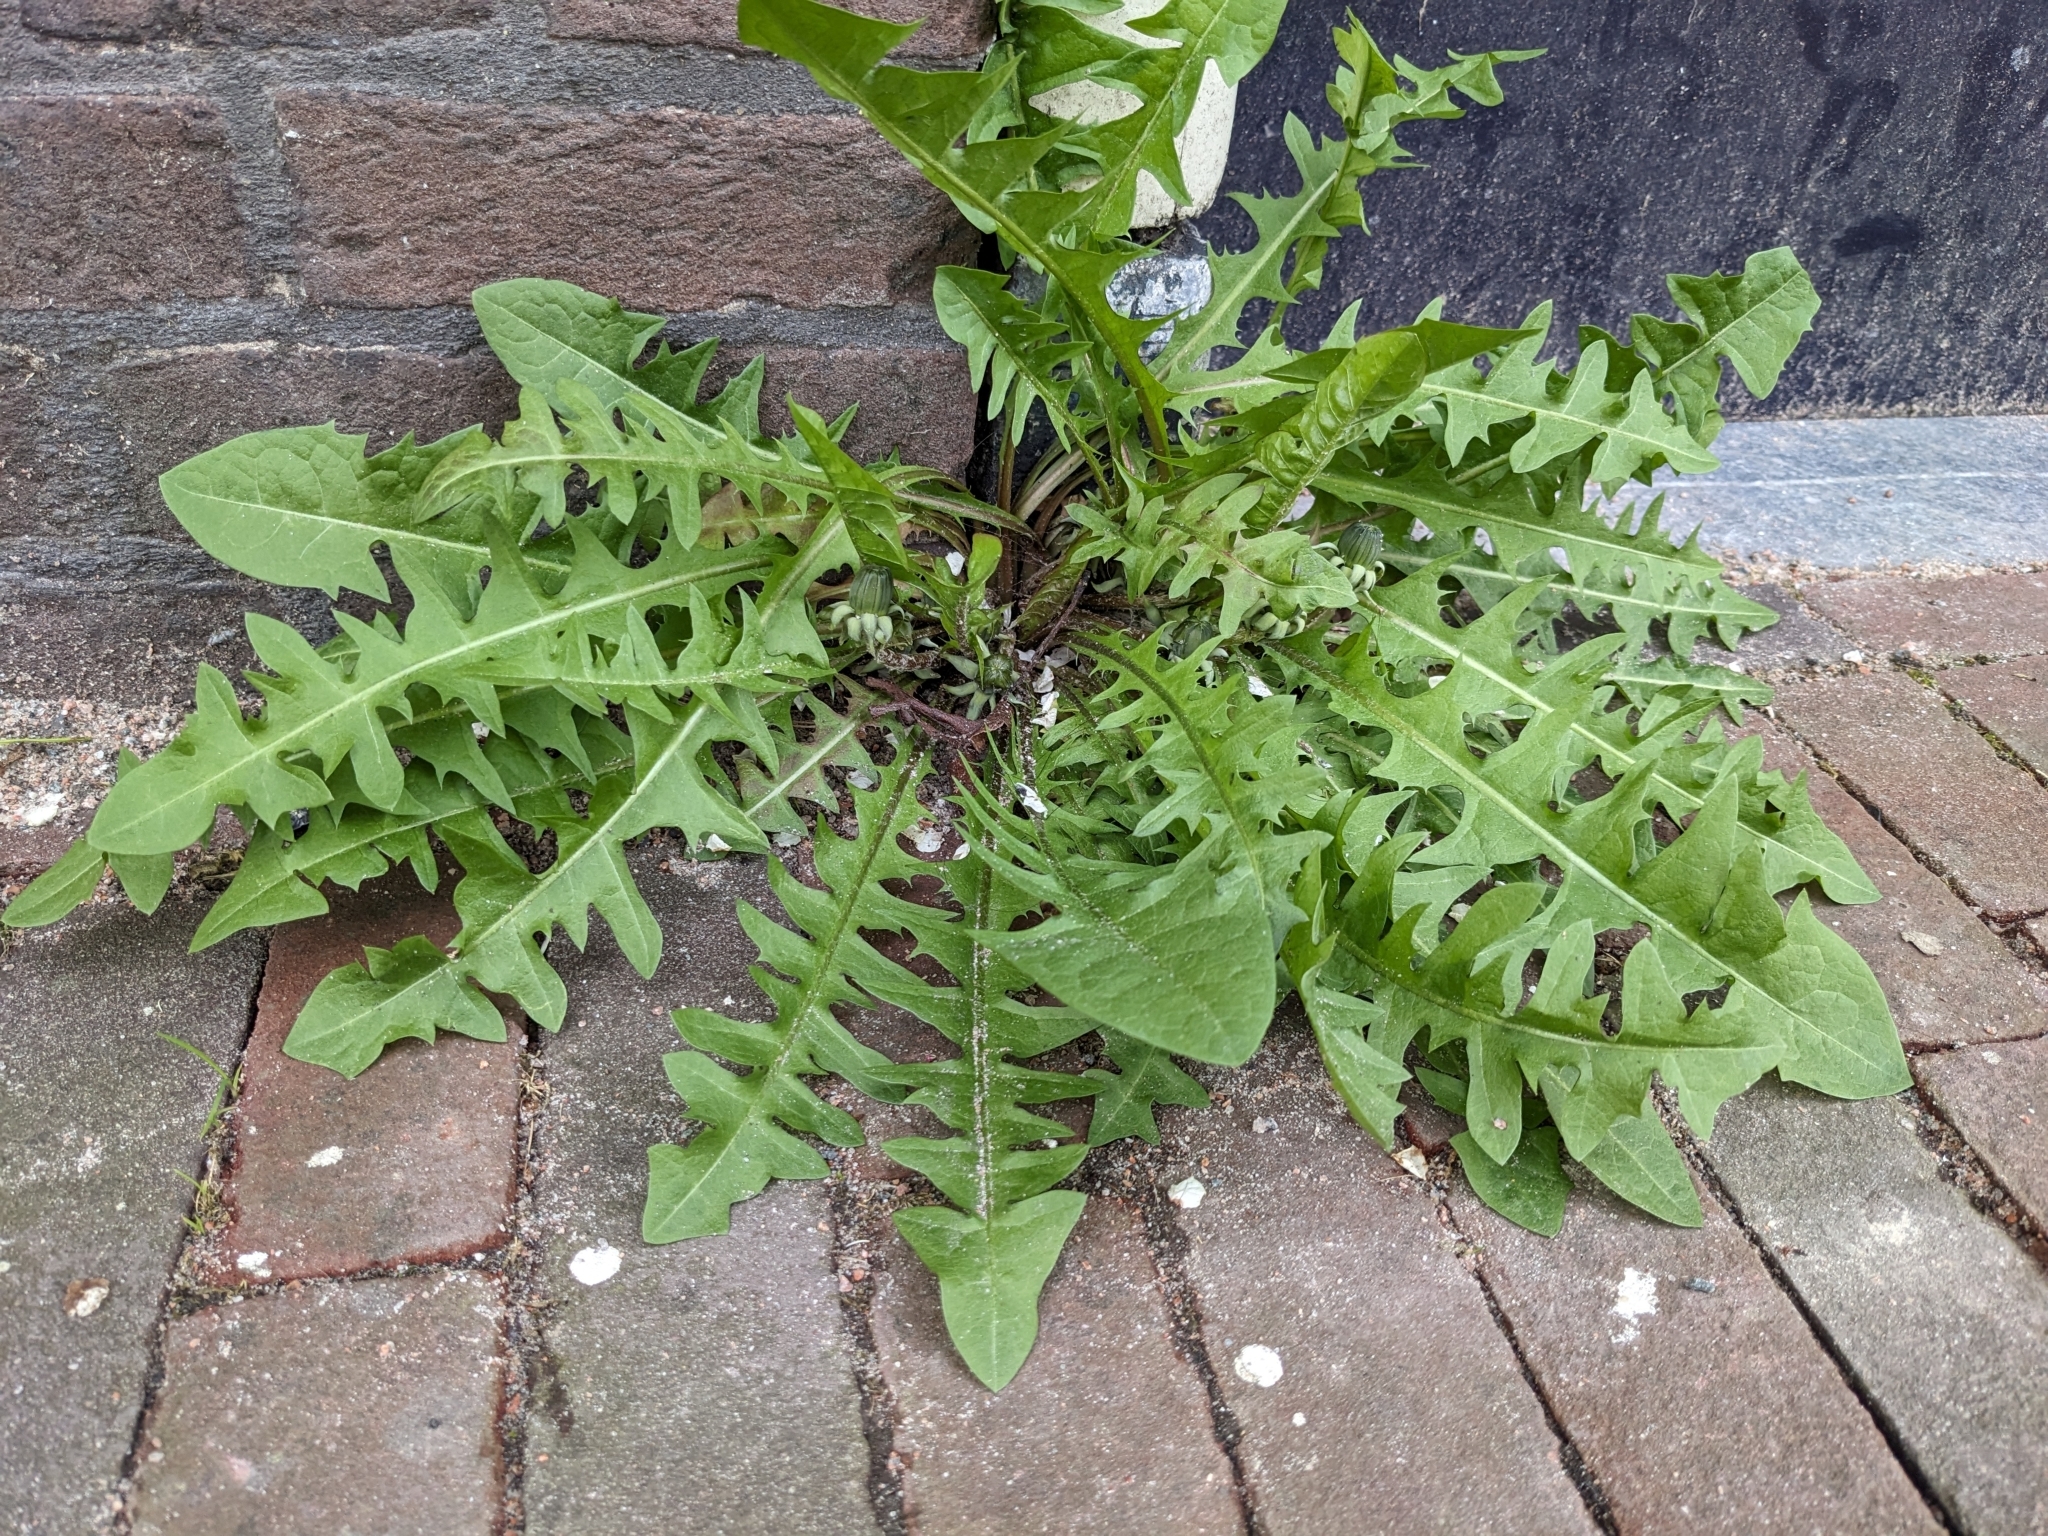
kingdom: Plantae
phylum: Tracheophyta
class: Magnoliopsida
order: Asterales
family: Asteraceae
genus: Taraxacum
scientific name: Taraxacum officinale
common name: Common dandelion
